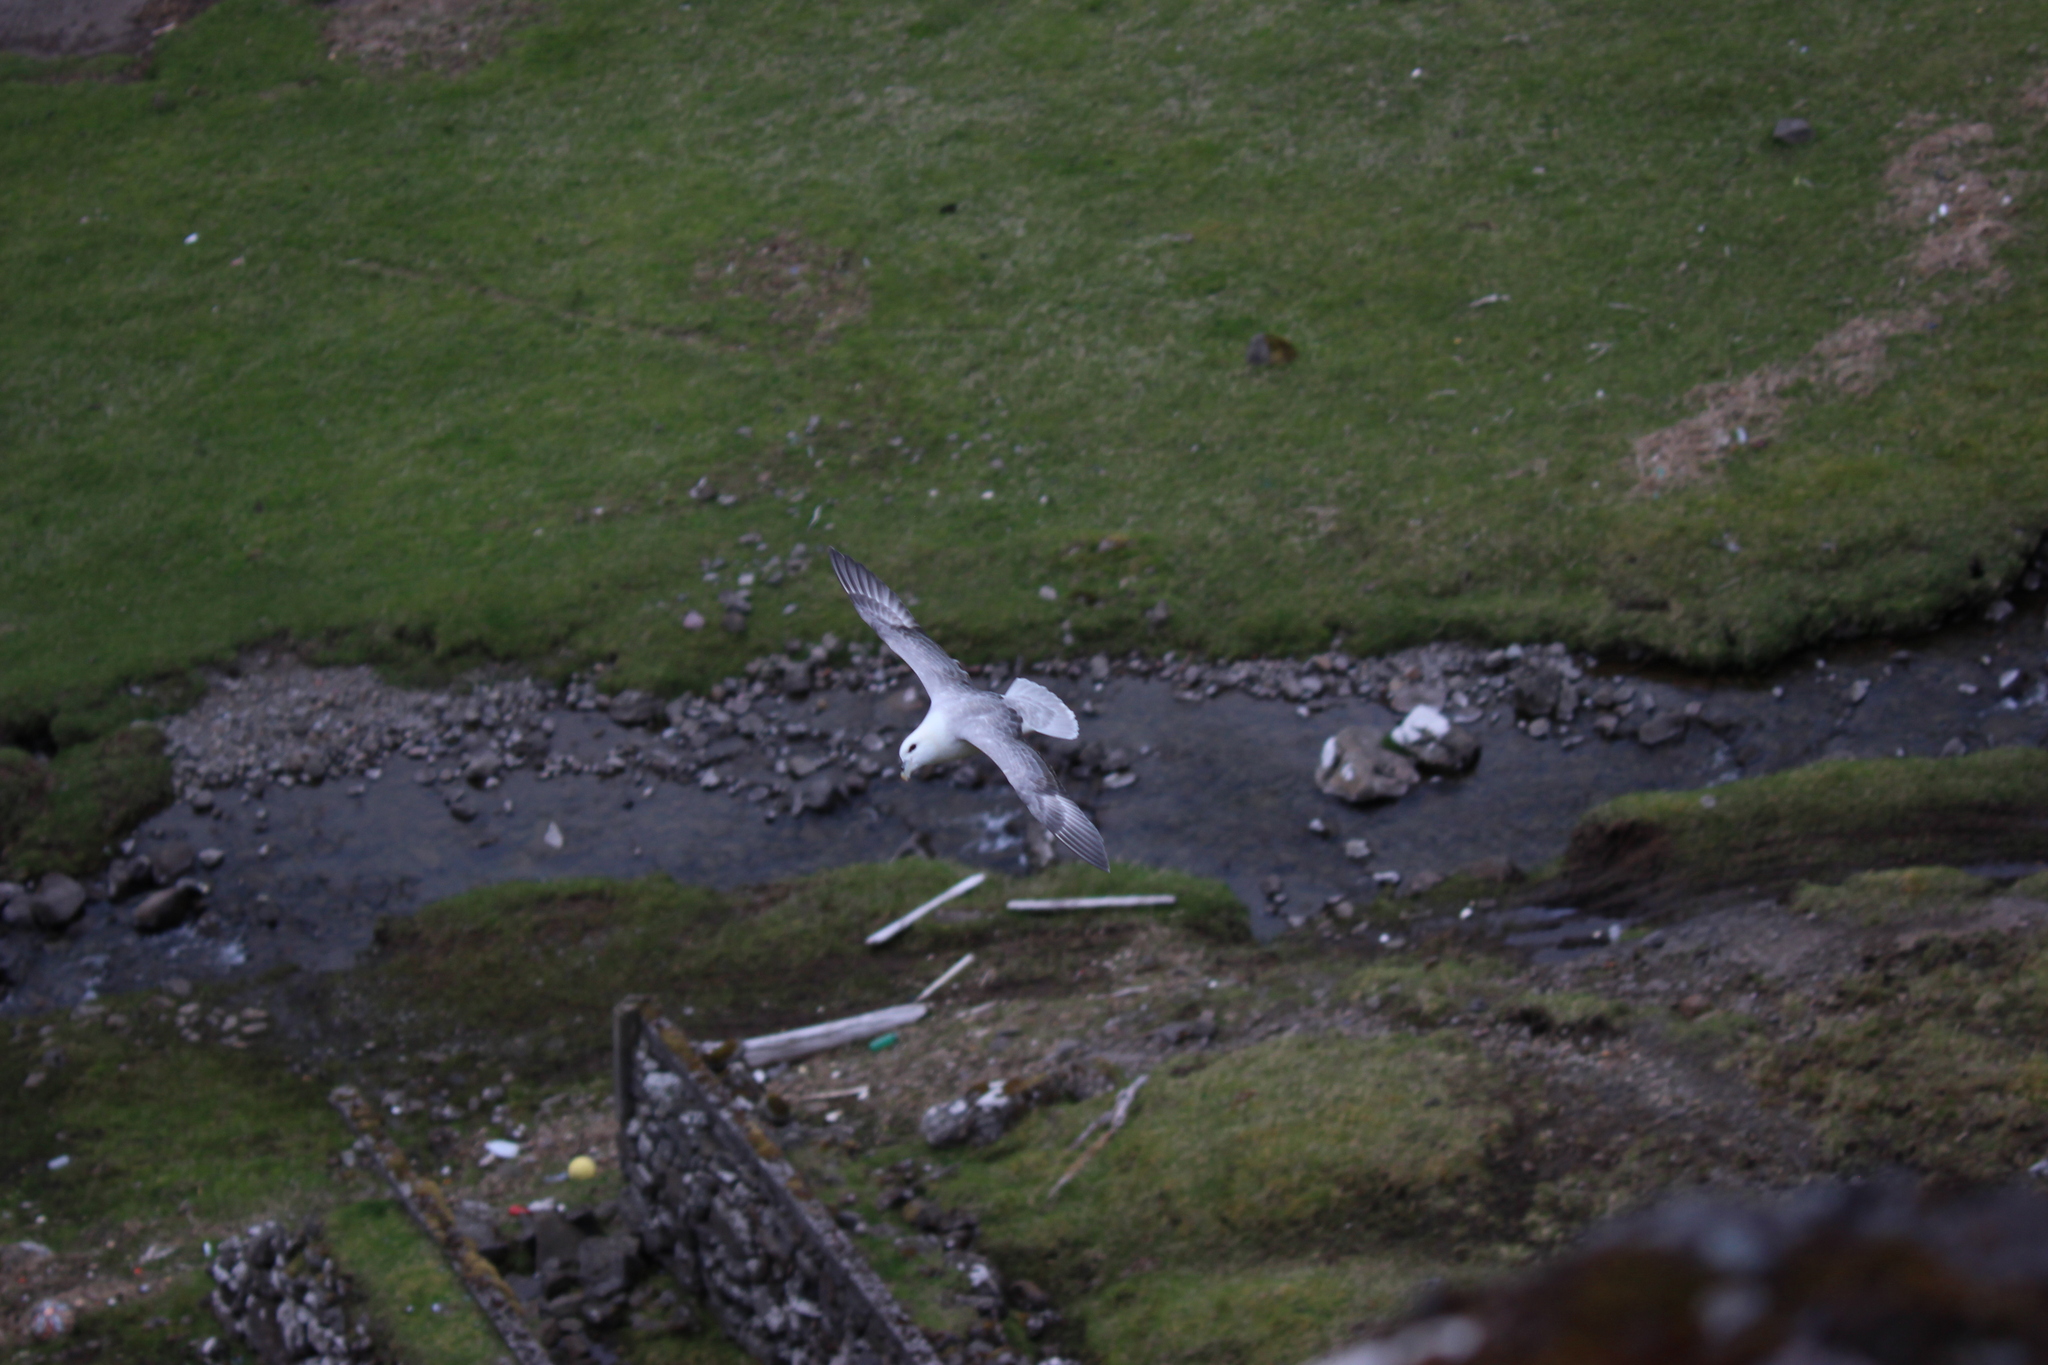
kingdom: Animalia
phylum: Chordata
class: Aves
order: Procellariiformes
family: Procellariidae
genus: Fulmarus
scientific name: Fulmarus glacialis
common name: Northern fulmar
